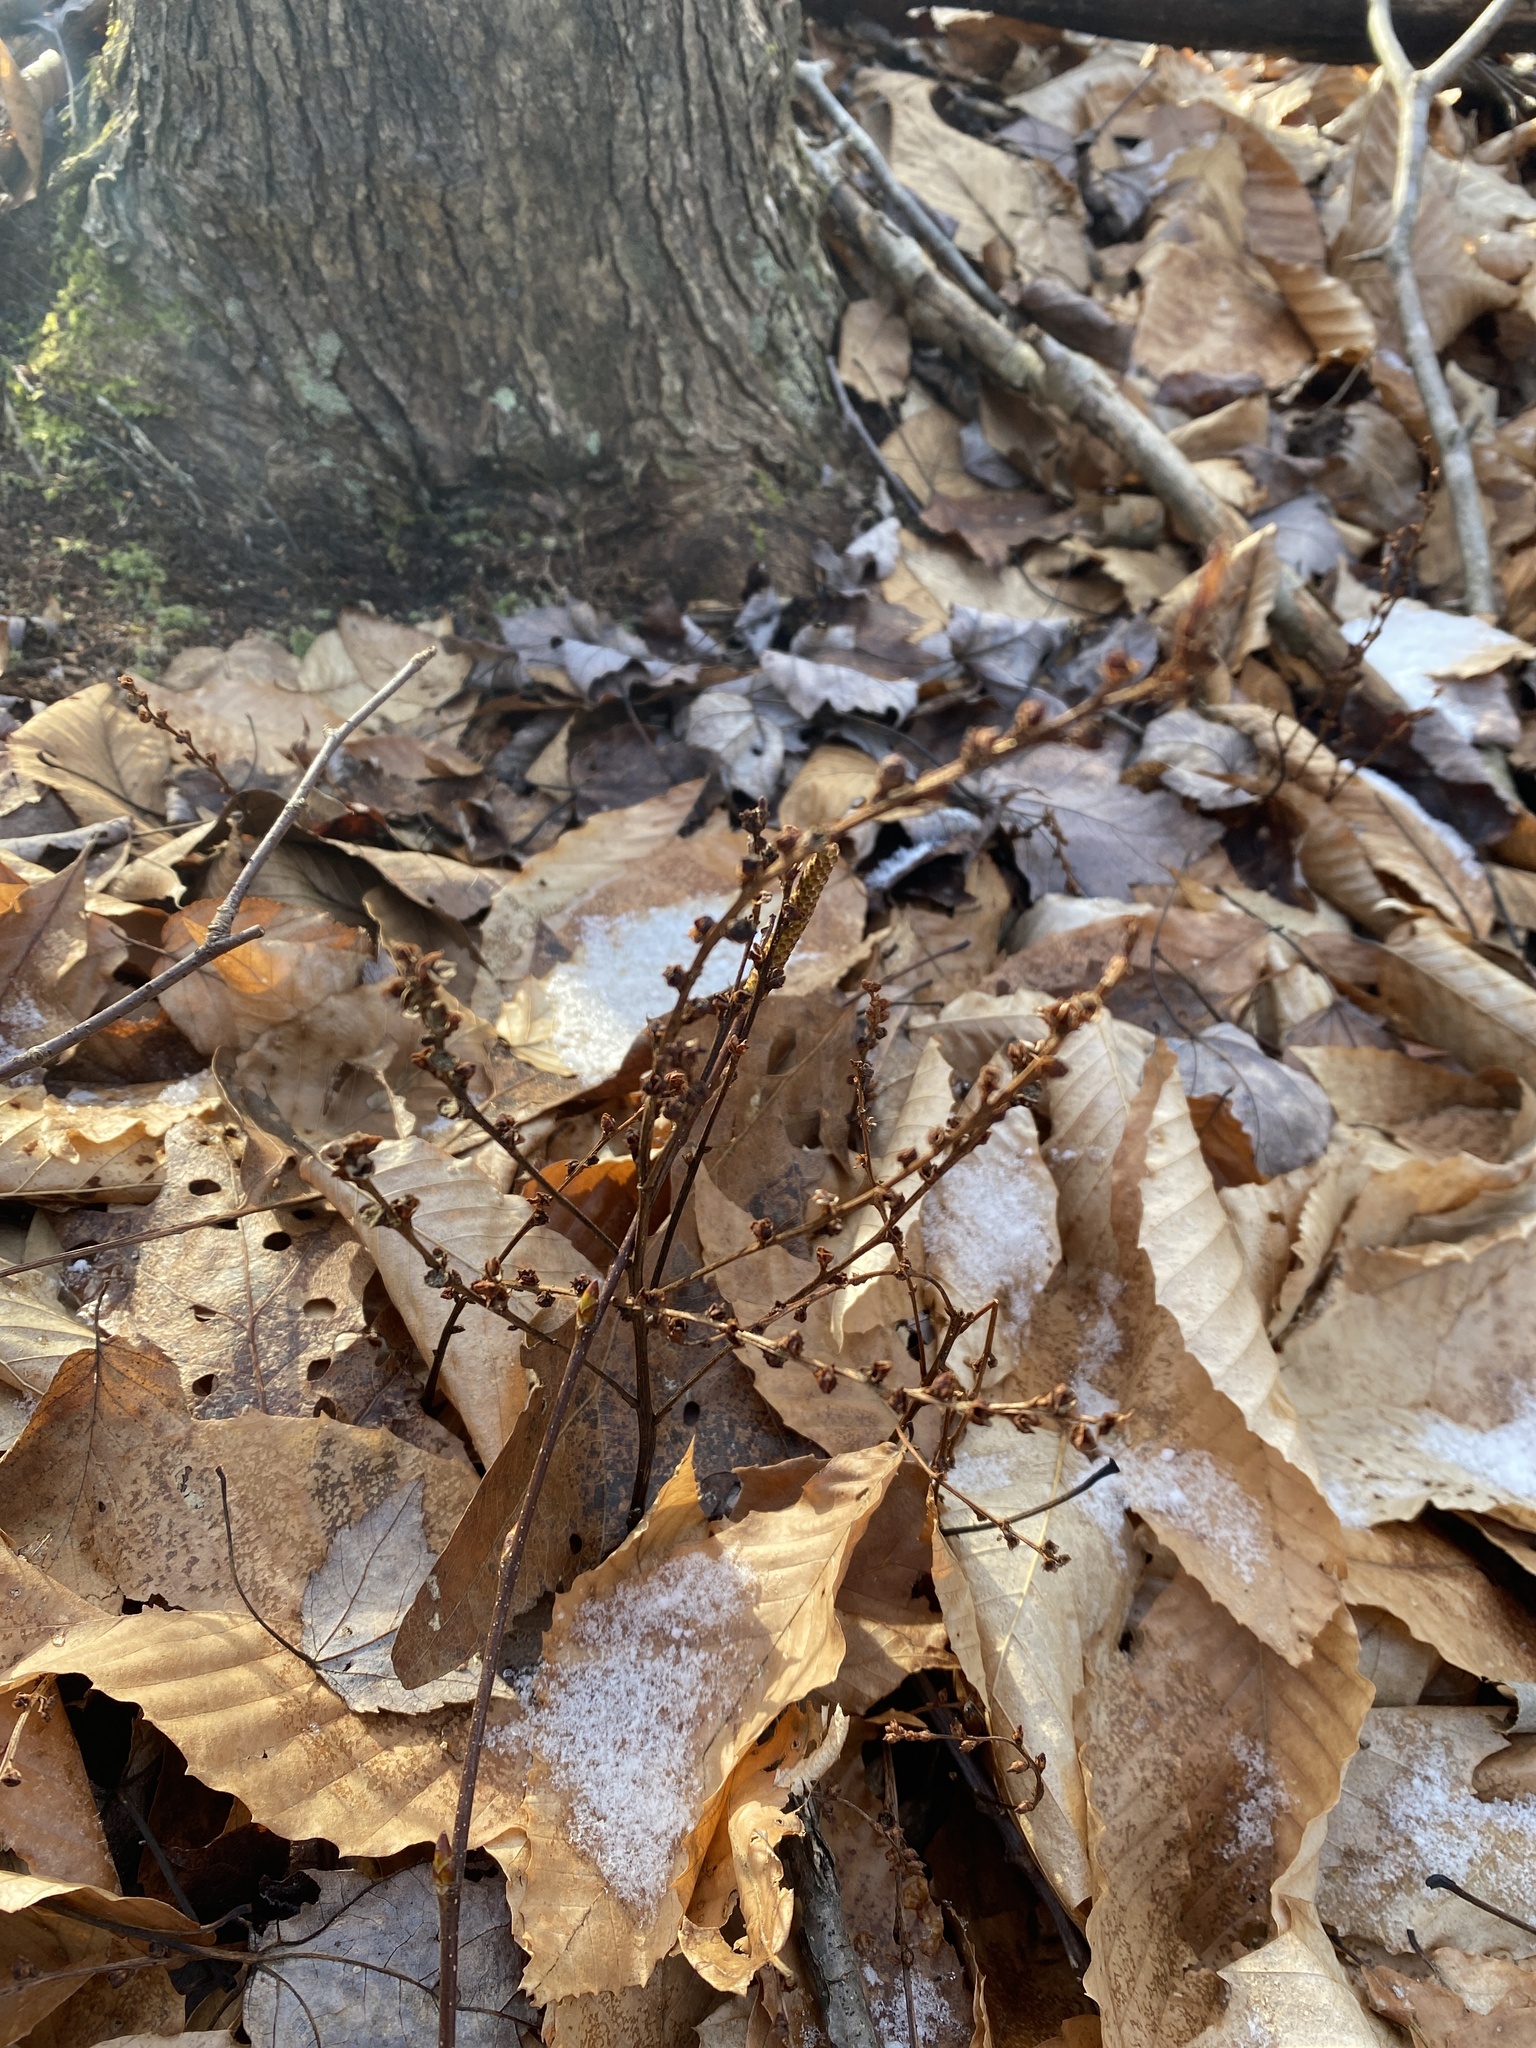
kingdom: Plantae
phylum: Tracheophyta
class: Magnoliopsida
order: Lamiales
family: Orobanchaceae
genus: Epifagus
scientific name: Epifagus virginiana
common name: Beechdrops
